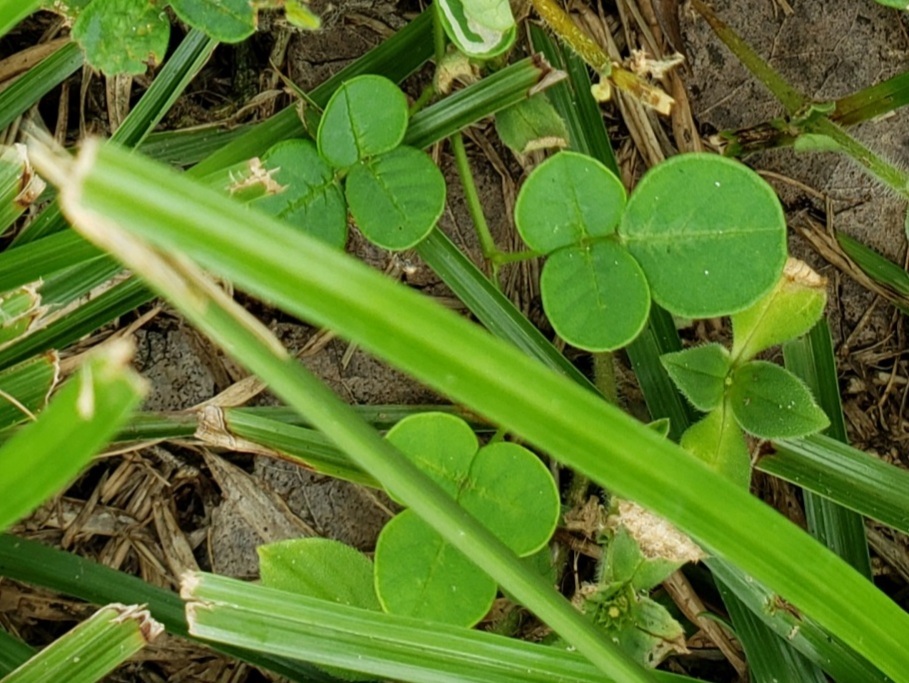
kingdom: Plantae
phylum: Tracheophyta
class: Magnoliopsida
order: Fabales
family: Fabaceae
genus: Grona
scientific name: Grona triflora
